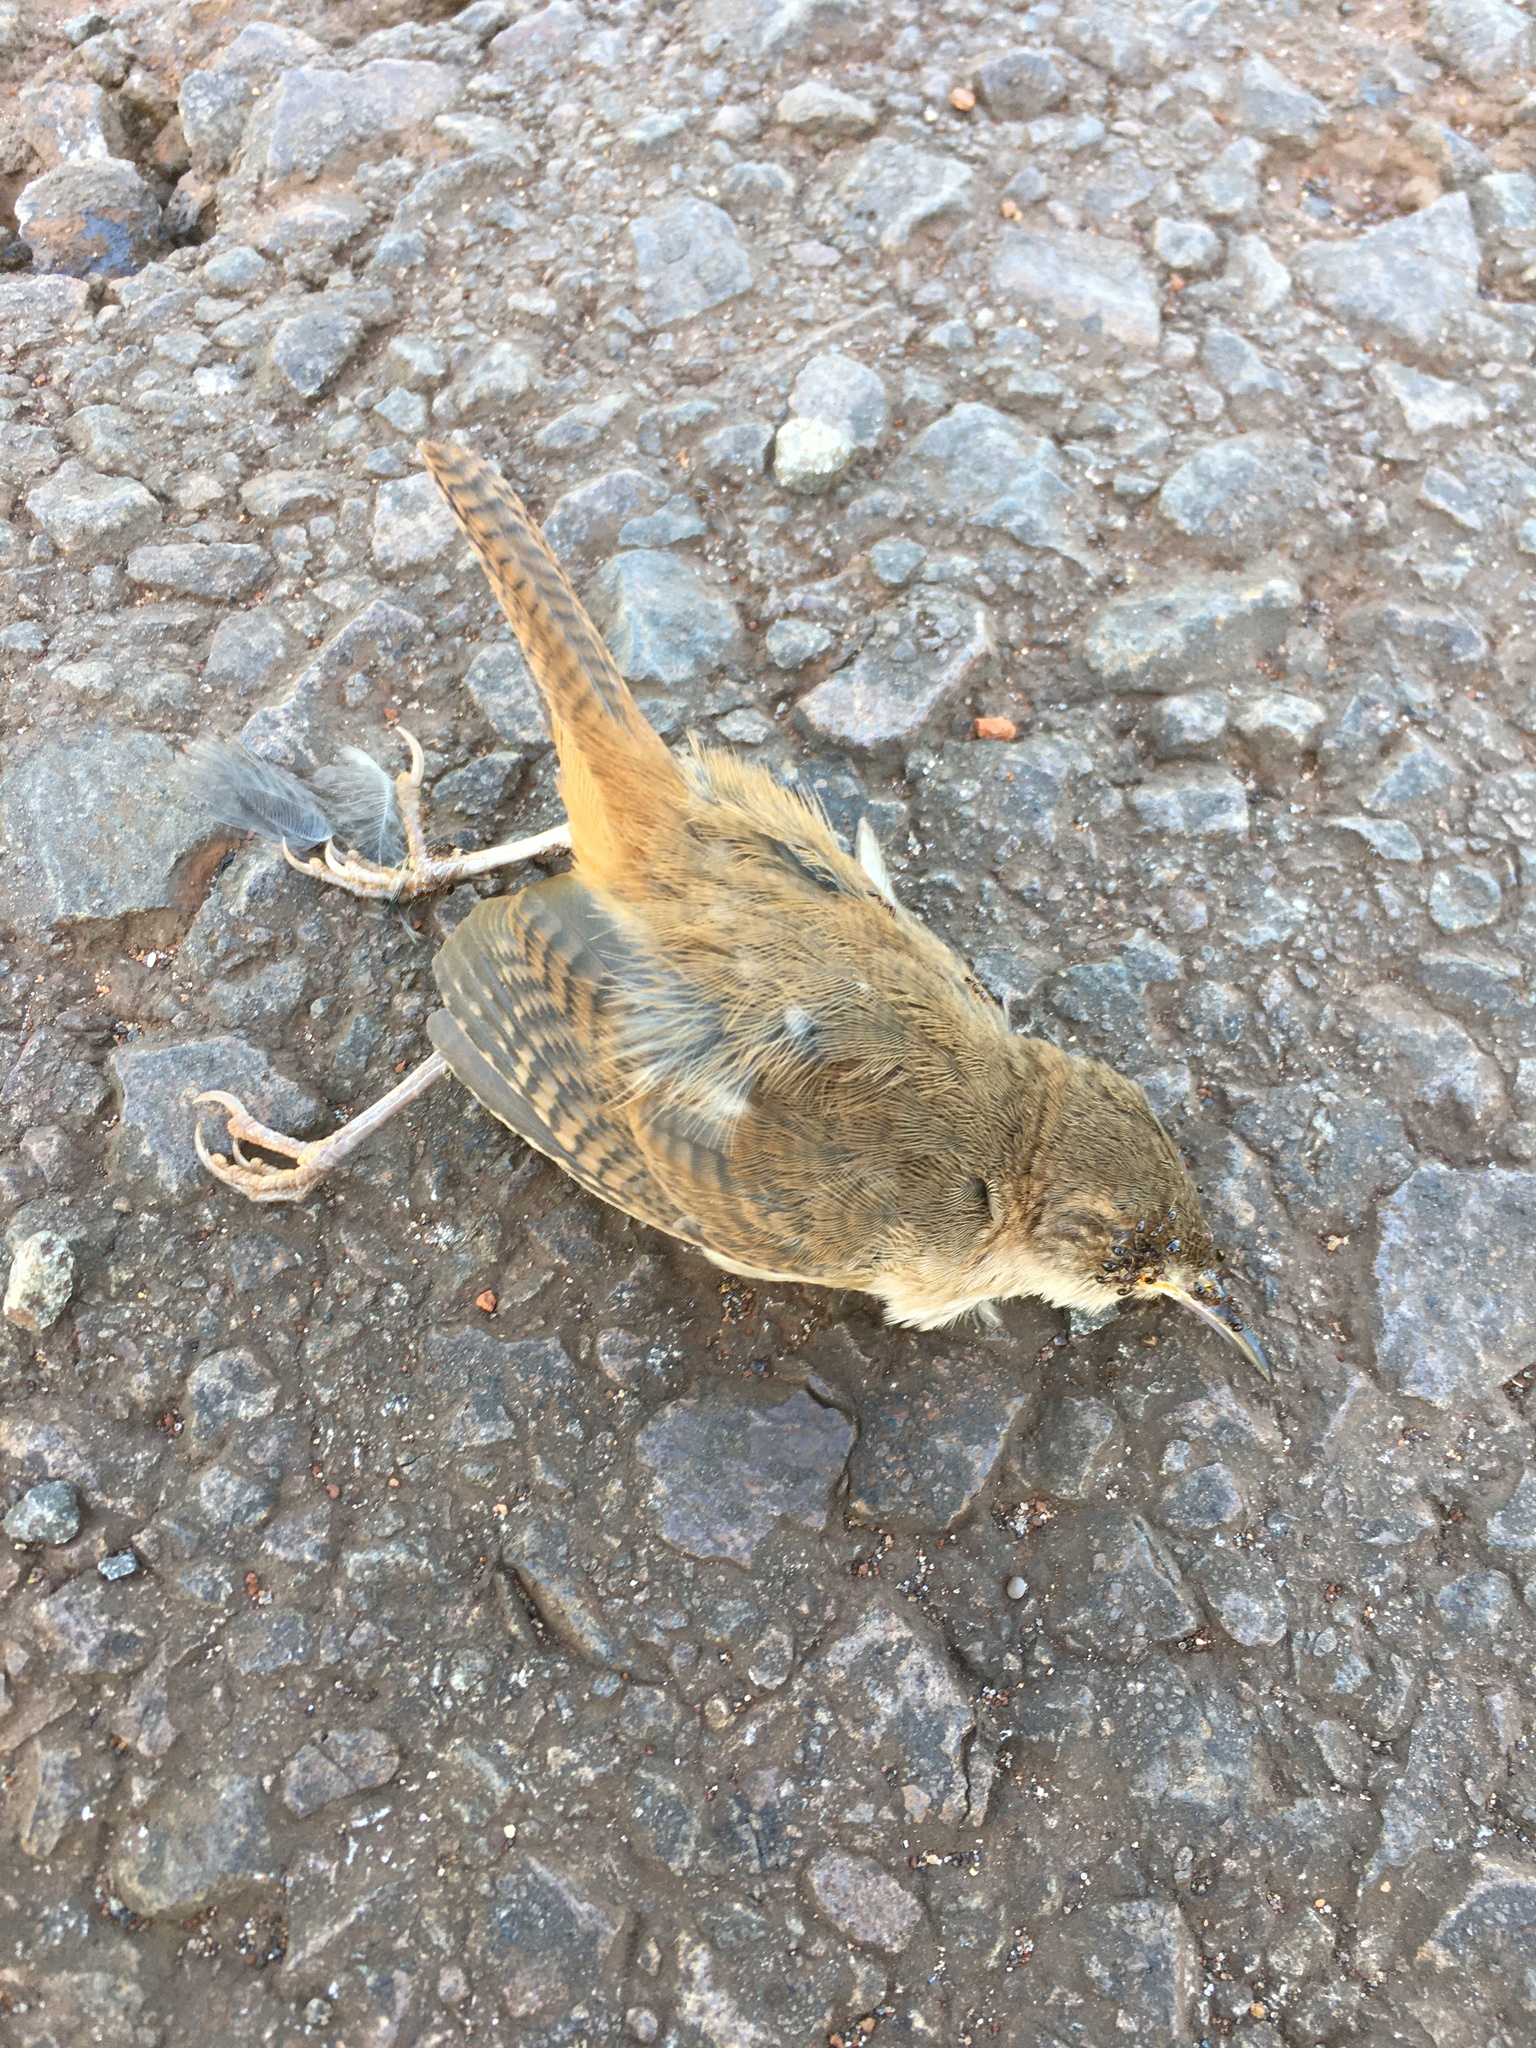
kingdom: Animalia
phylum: Chordata
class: Aves
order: Passeriformes
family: Troglodytidae
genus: Troglodytes
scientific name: Troglodytes aedon
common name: House wren
